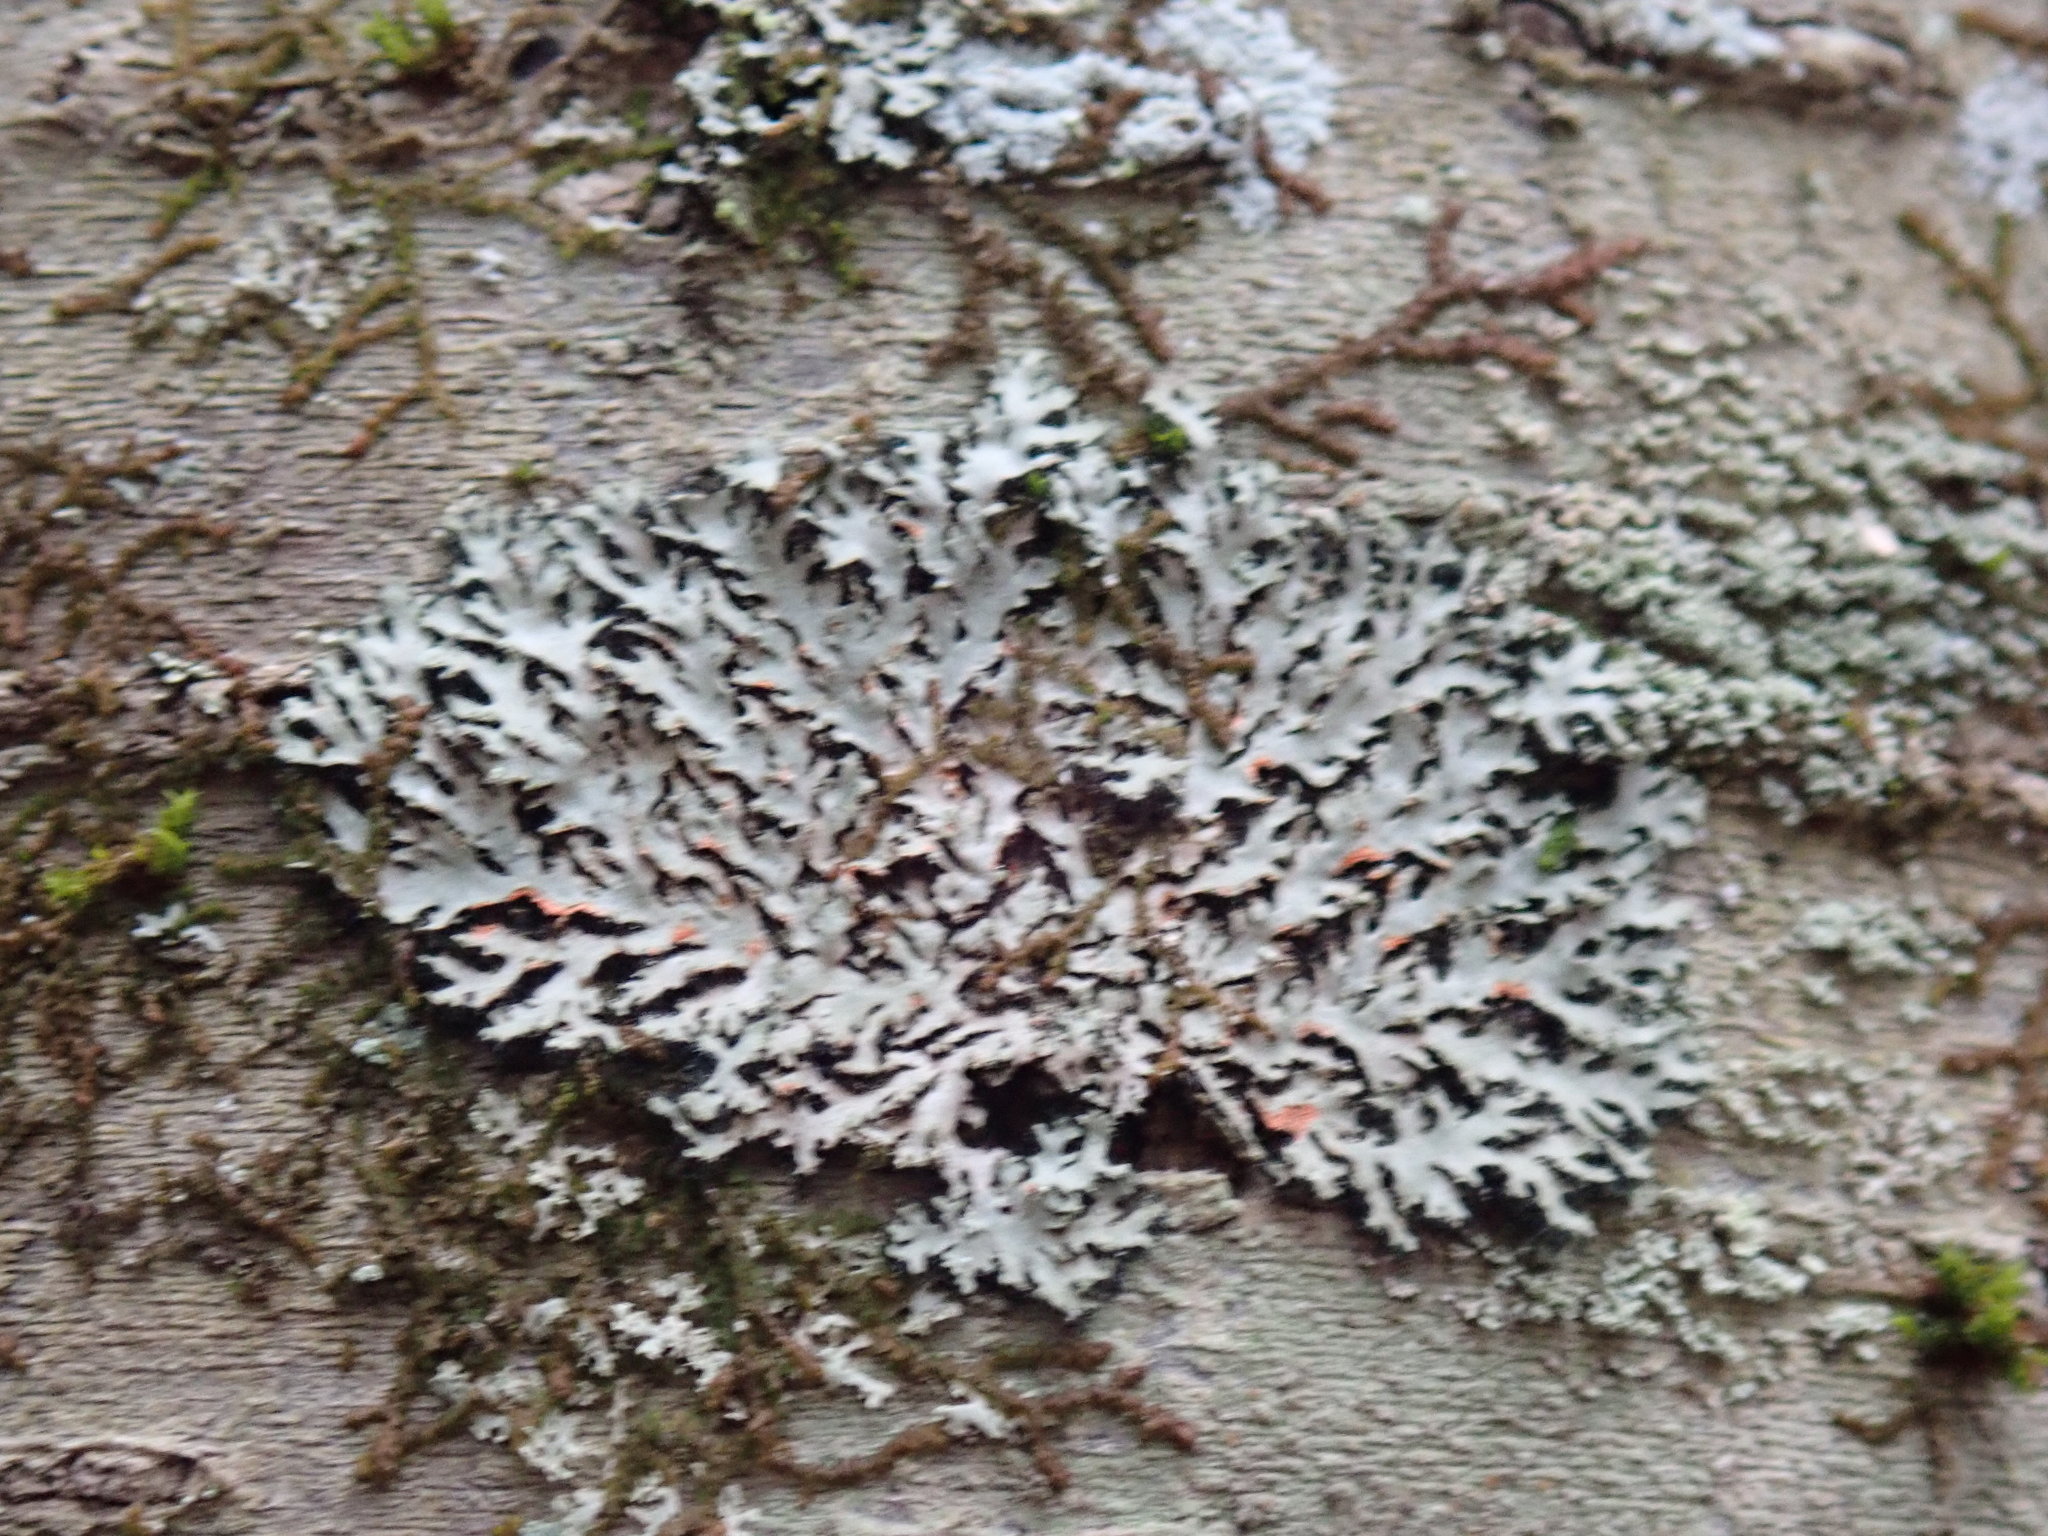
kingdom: Fungi
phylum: Ascomycota
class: Lecanoromycetes
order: Lecanorales
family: Parmeliaceae
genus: Parmelia
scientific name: Parmelia squarrosa
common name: Bottle brush shield lichen
